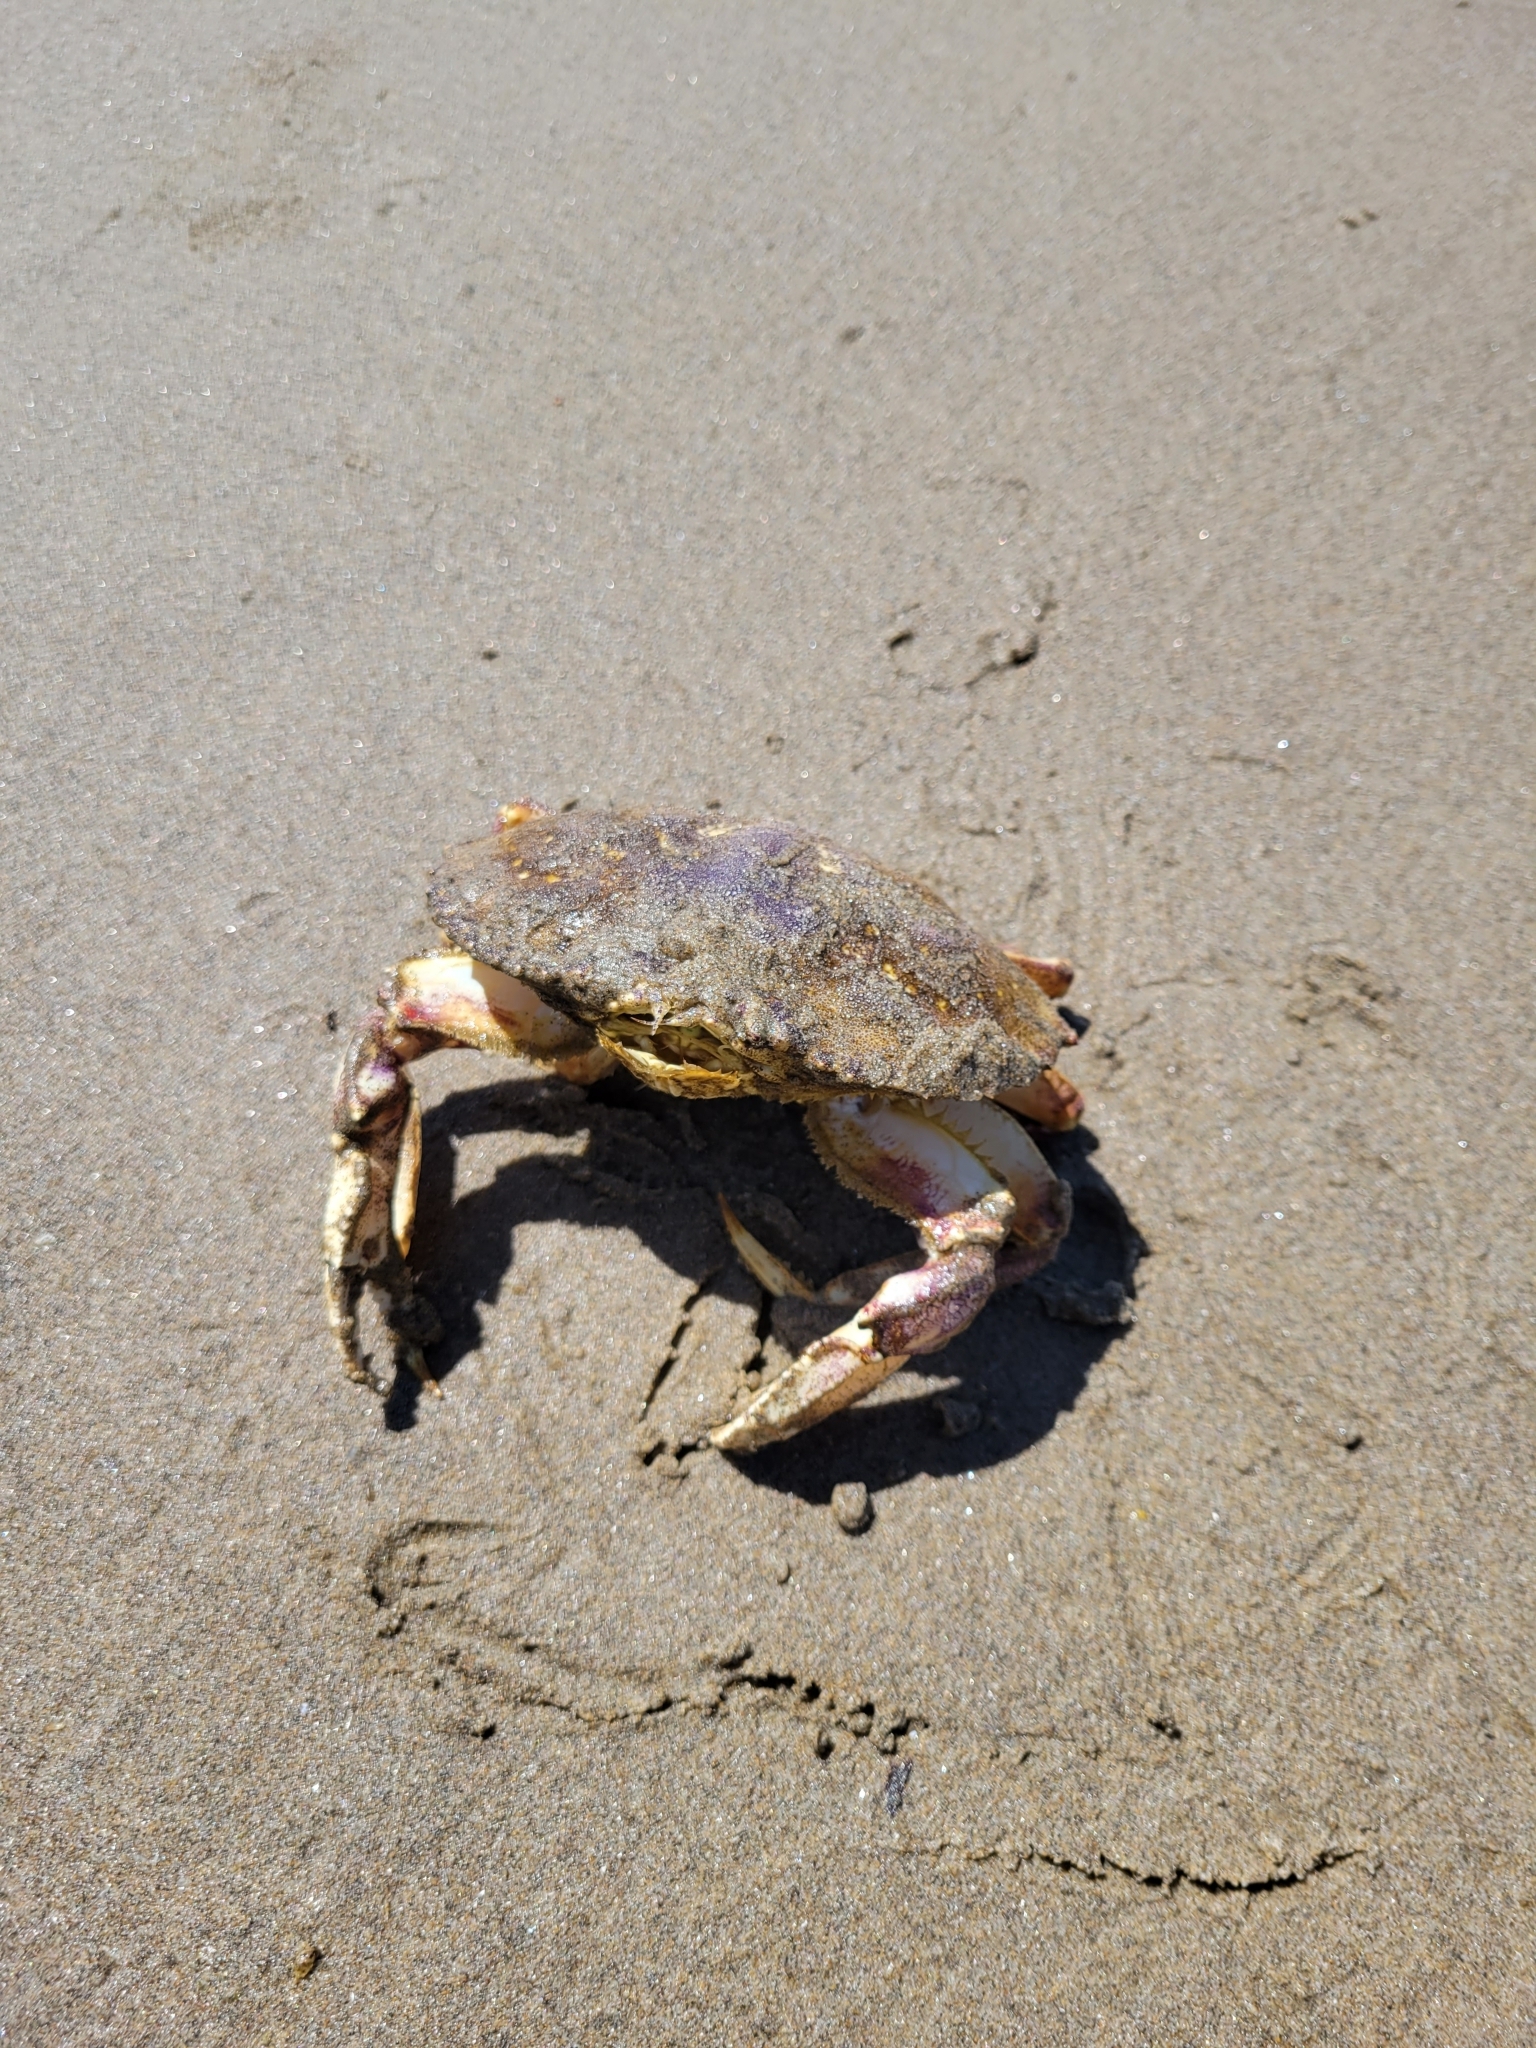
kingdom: Animalia
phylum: Arthropoda
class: Malacostraca
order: Decapoda
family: Cancridae
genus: Metacarcinus
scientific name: Metacarcinus magister
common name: Californian crab
